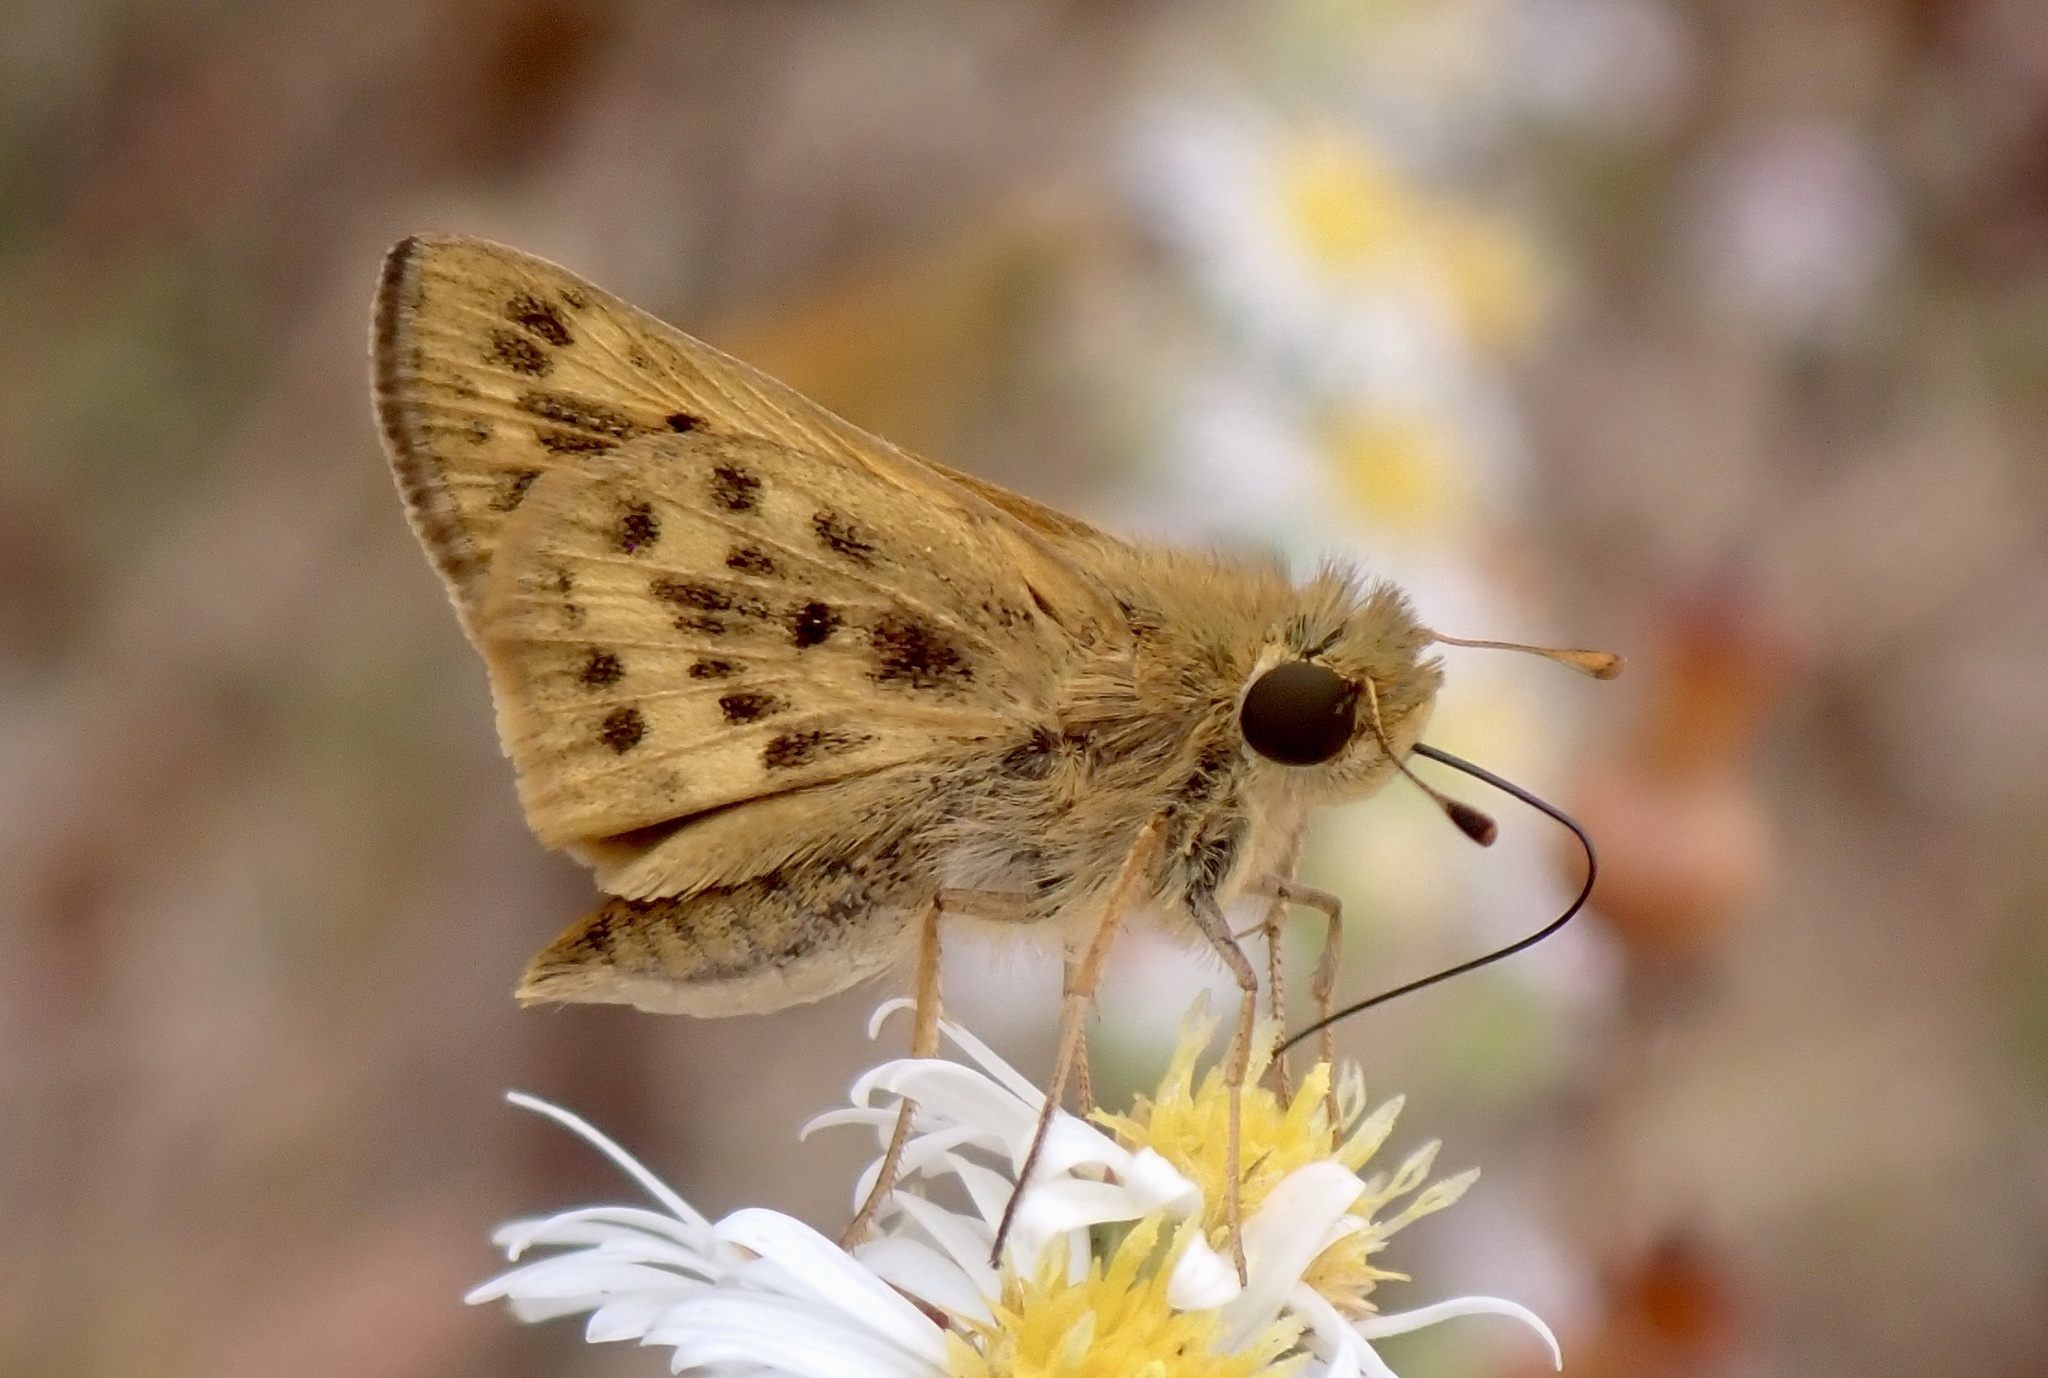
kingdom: Animalia
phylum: Arthropoda
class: Insecta
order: Lepidoptera
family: Hesperiidae
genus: Hylephila
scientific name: Hylephila phyleus
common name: Fiery skipper
